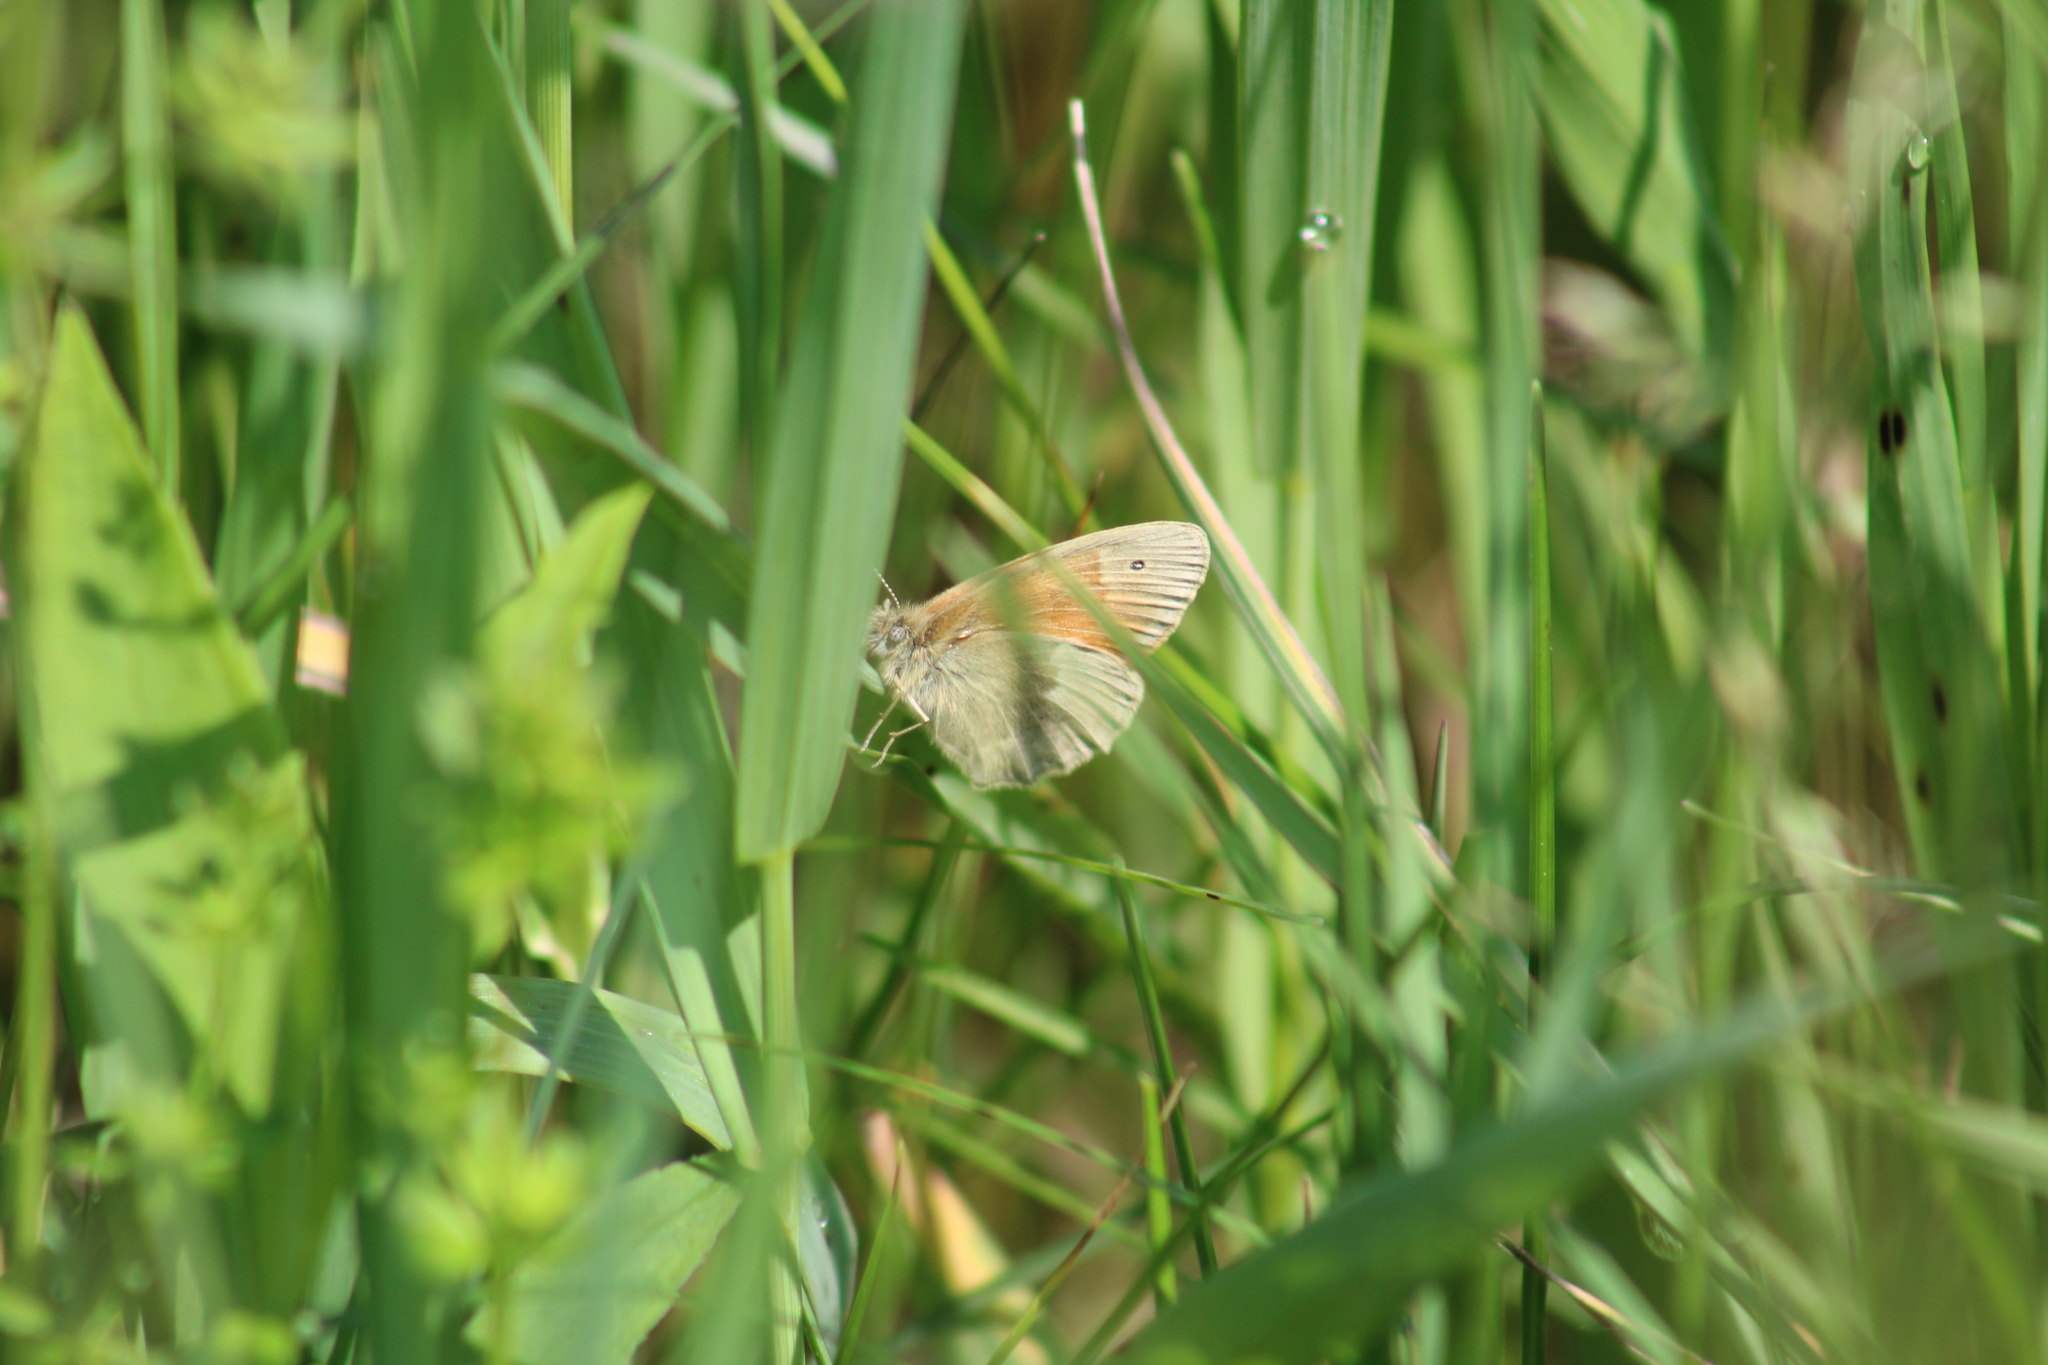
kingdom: Animalia
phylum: Arthropoda
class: Insecta
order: Lepidoptera
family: Nymphalidae
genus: Coenonympha
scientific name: Coenonympha california
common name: Common ringlet
